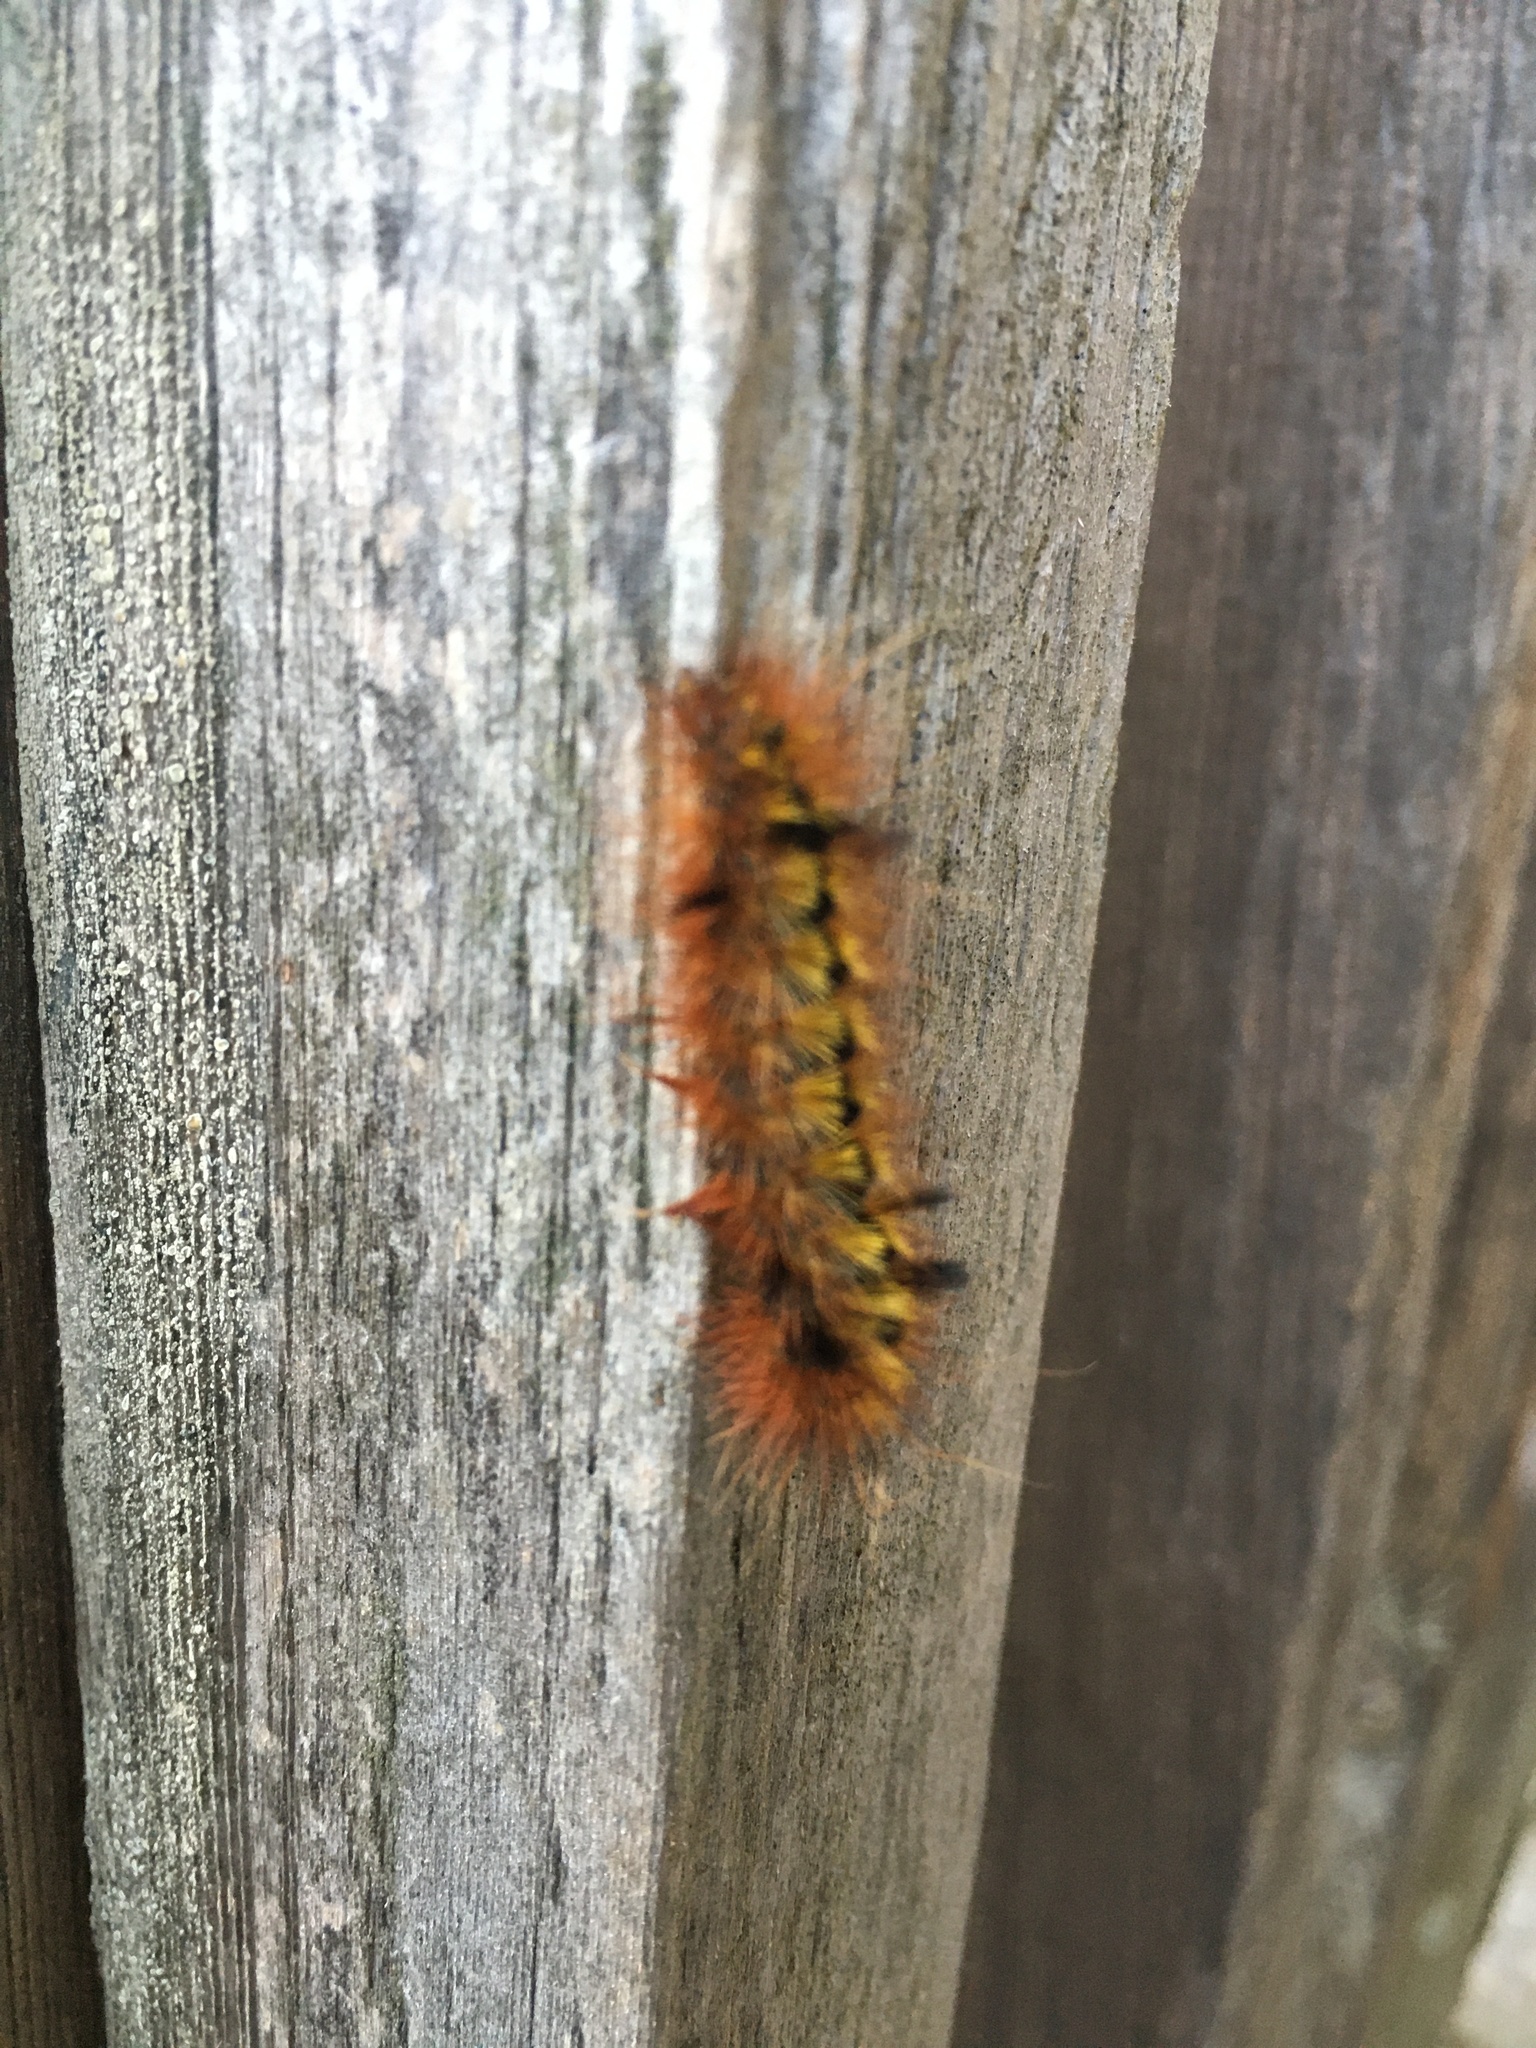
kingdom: Animalia
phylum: Arthropoda
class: Insecta
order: Lepidoptera
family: Erebidae
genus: Lophocampa
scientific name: Lophocampa argentata
